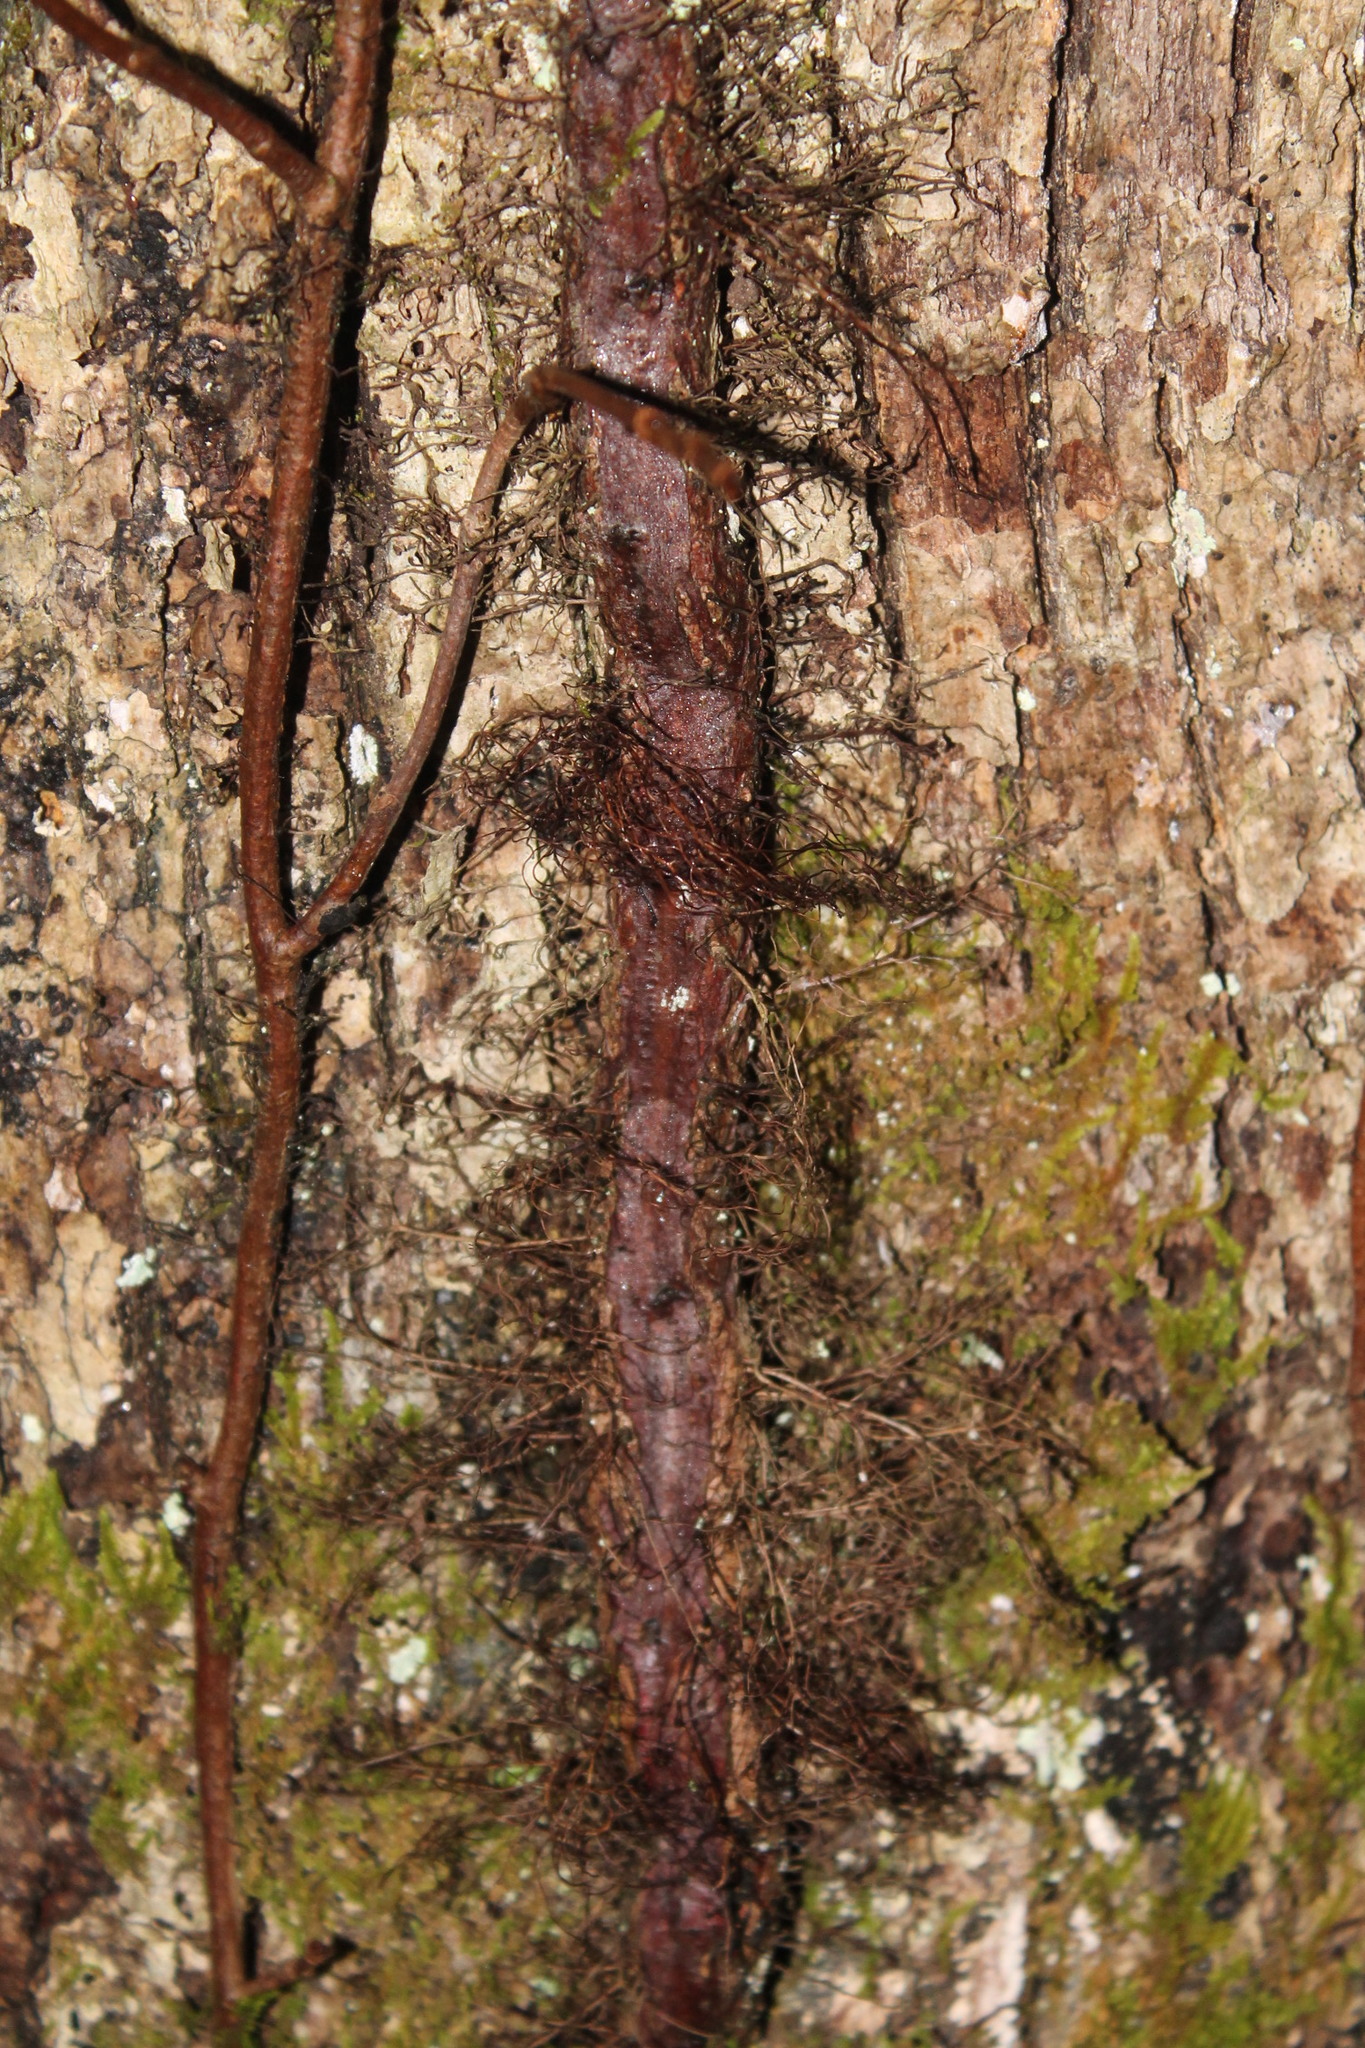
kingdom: Plantae
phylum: Tracheophyta
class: Magnoliopsida
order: Sapindales
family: Anacardiaceae
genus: Toxicodendron
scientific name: Toxicodendron radicans
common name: Poison ivy
